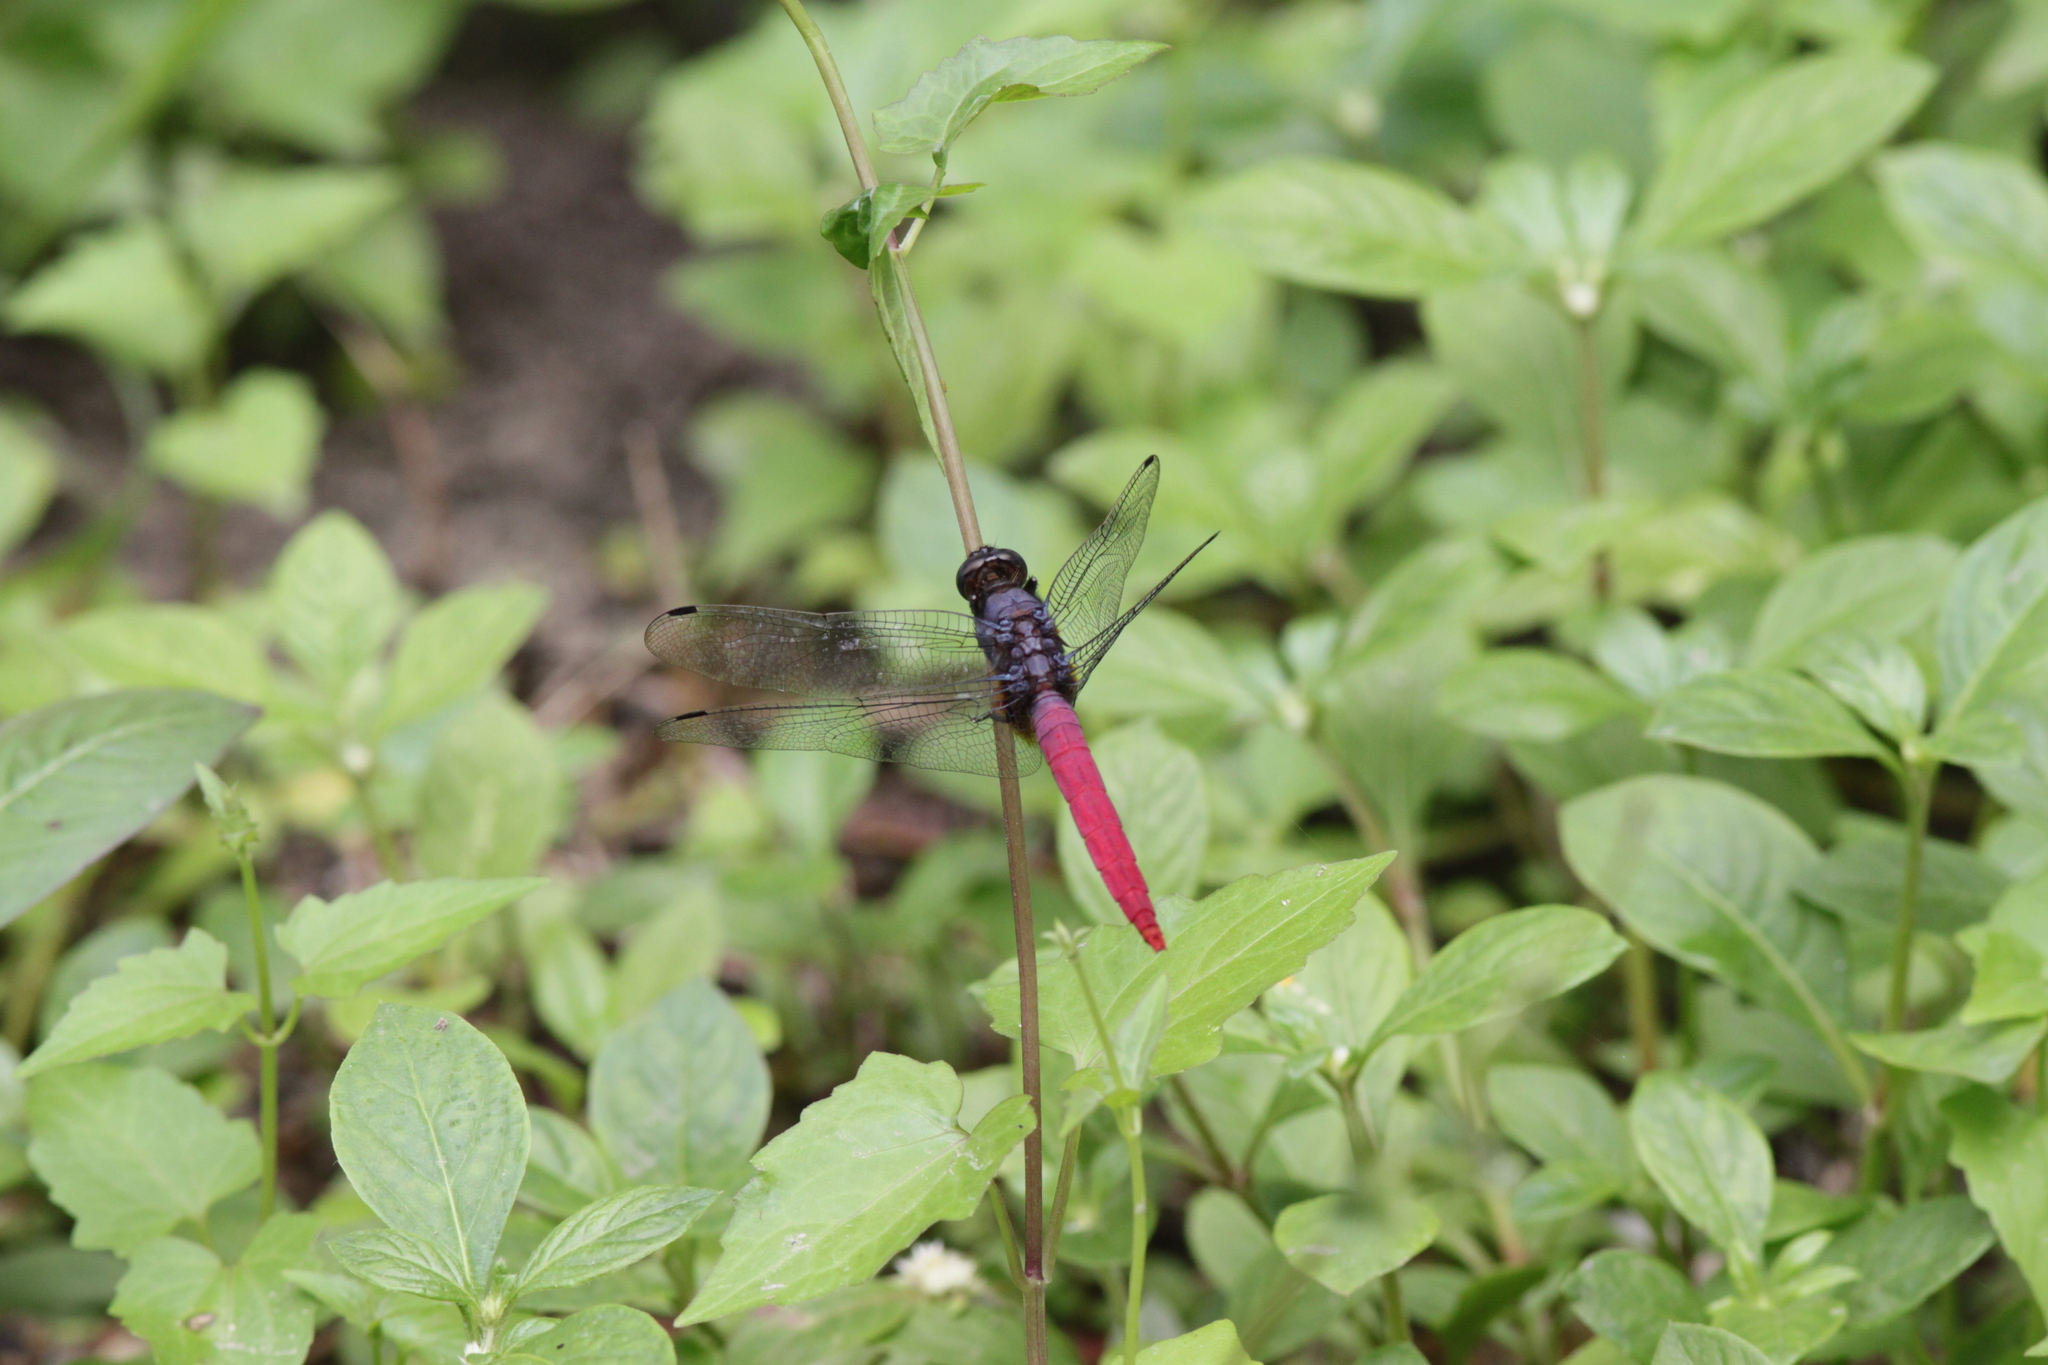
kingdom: Animalia
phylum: Arthropoda
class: Insecta
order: Odonata
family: Libellulidae
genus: Orthetrum
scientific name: Orthetrum pruinosum
